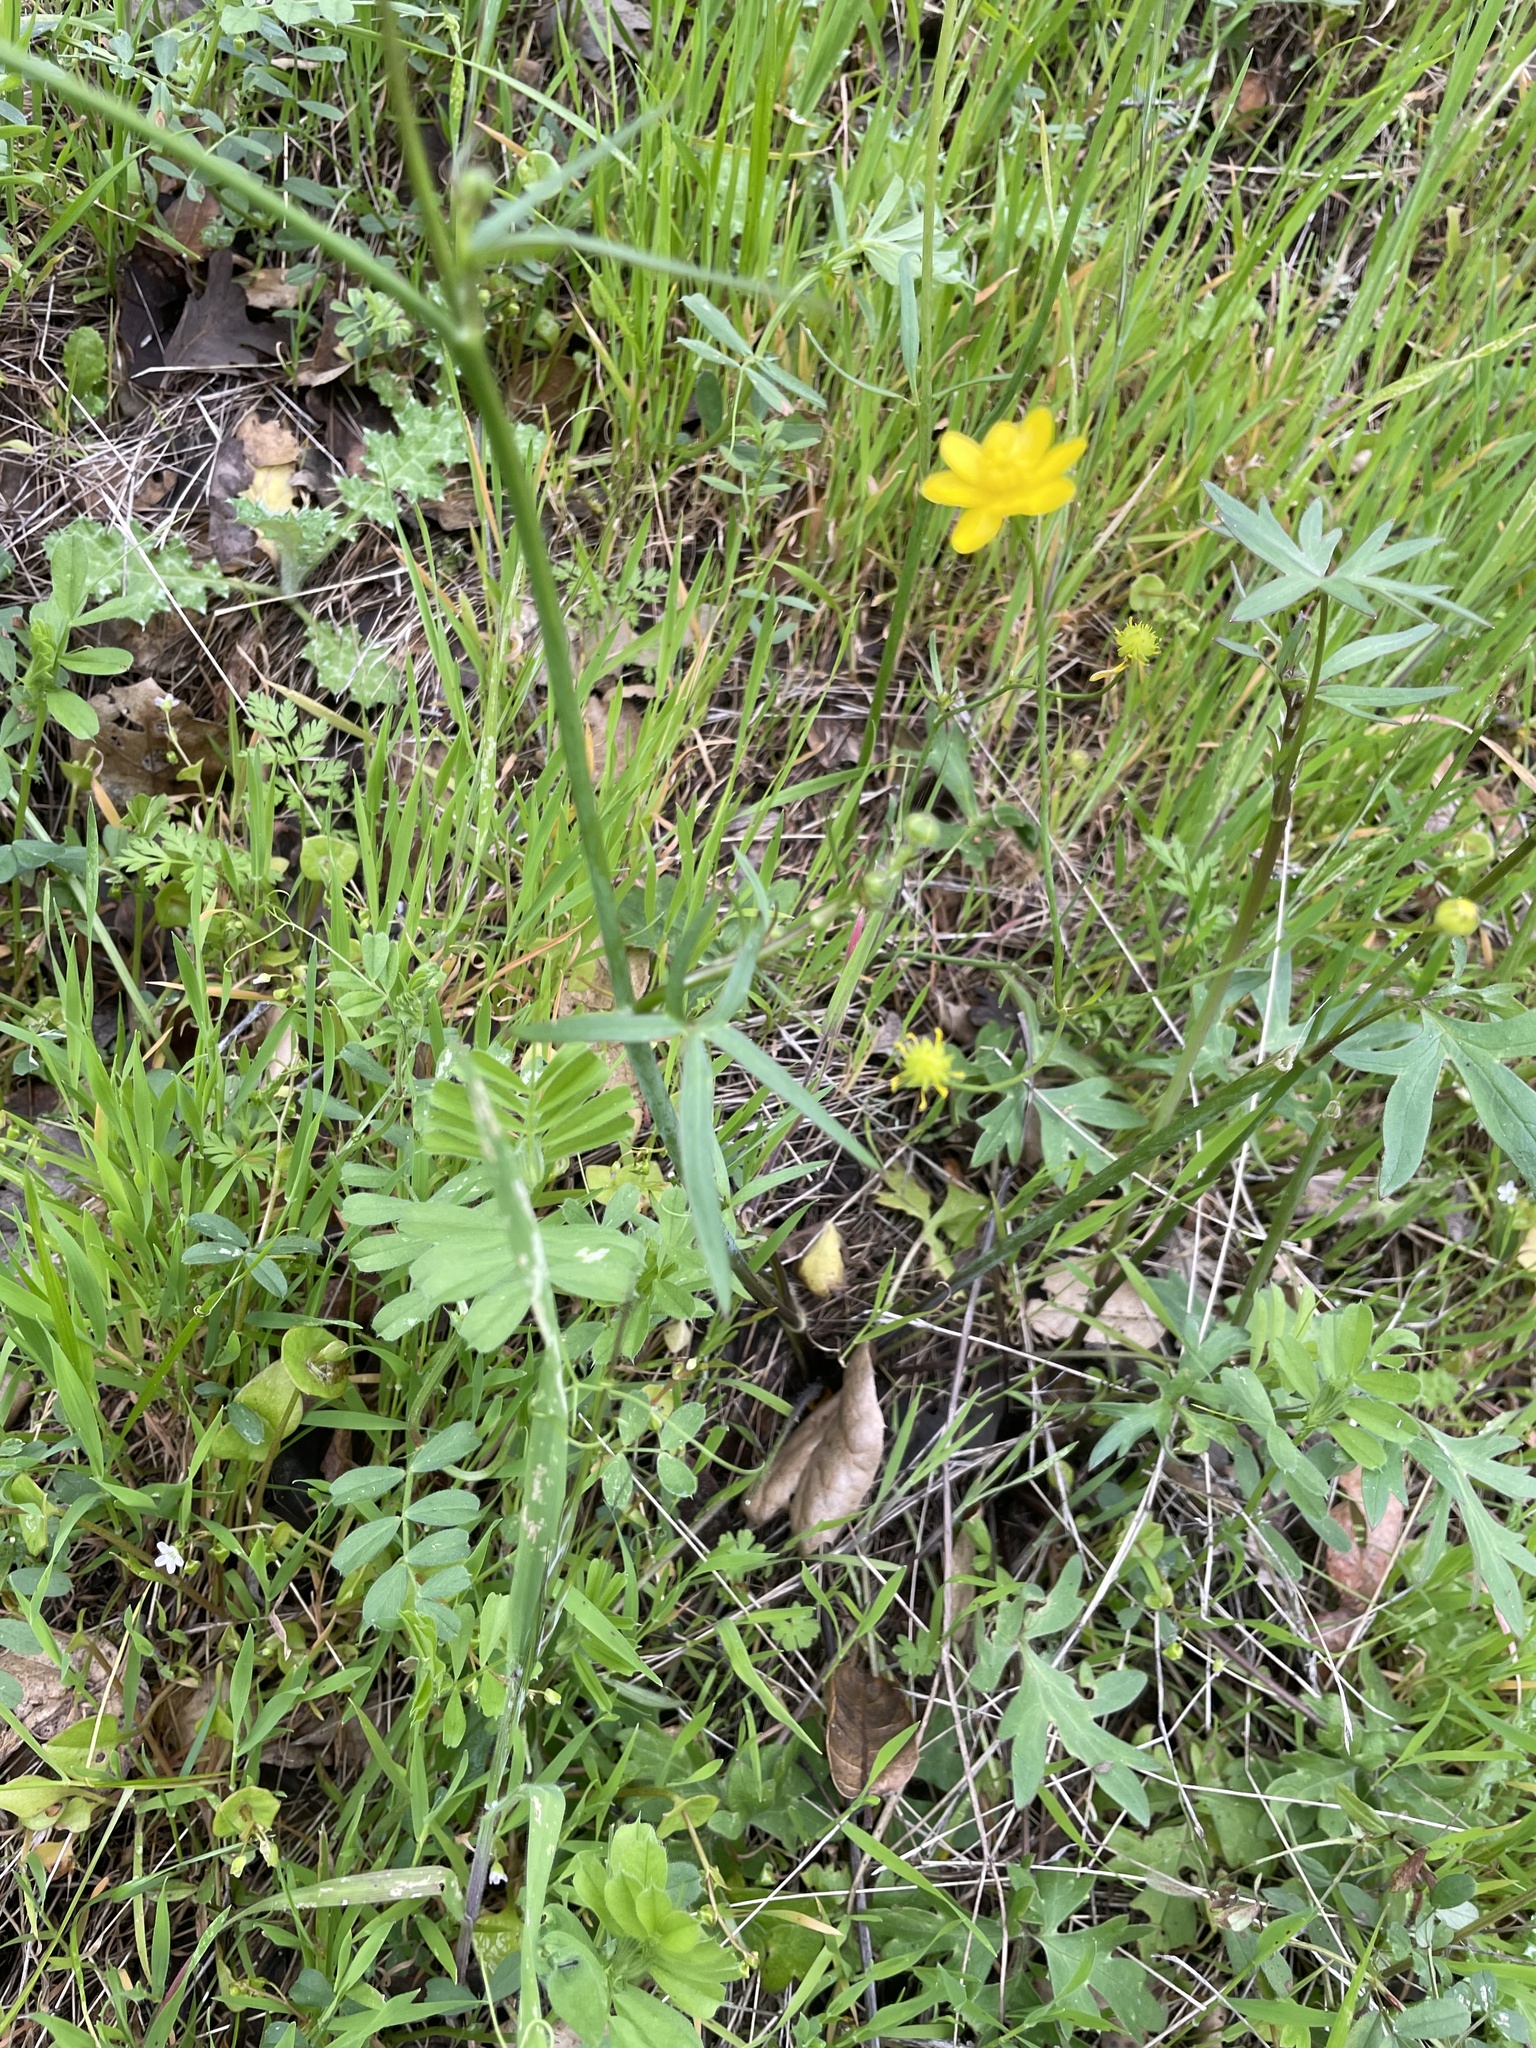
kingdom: Plantae
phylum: Tracheophyta
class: Magnoliopsida
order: Ranunculales
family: Ranunculaceae
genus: Ranunculus
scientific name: Ranunculus californicus
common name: California buttercup
